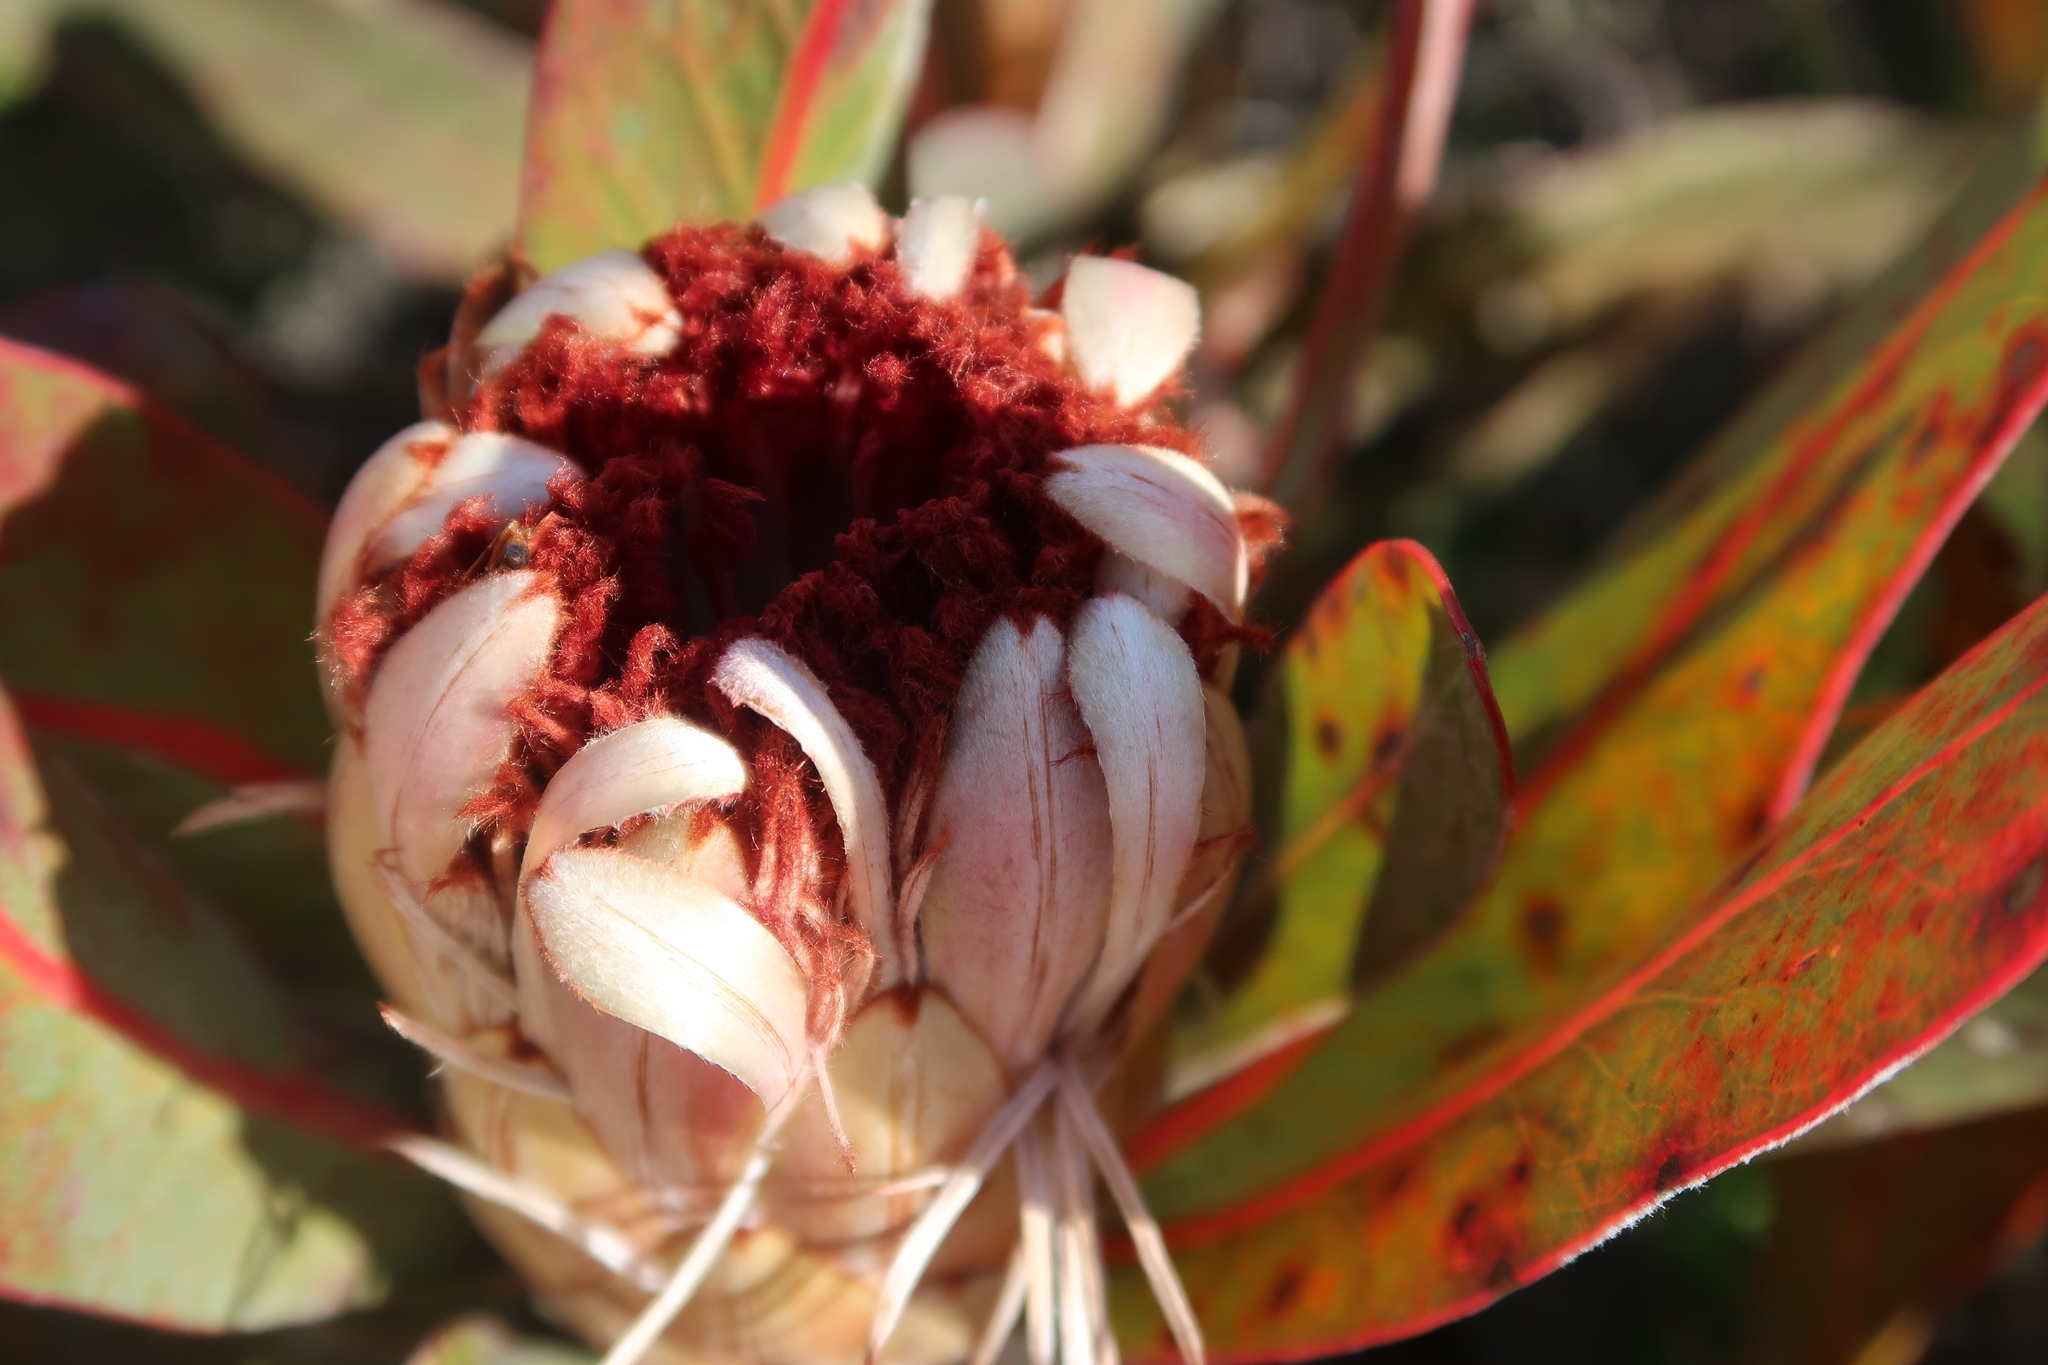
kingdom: Plantae
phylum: Tracheophyta
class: Magnoliopsida
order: Proteales
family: Proteaceae
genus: Protea
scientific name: Protea lorifolia
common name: Strap-leaved protea
